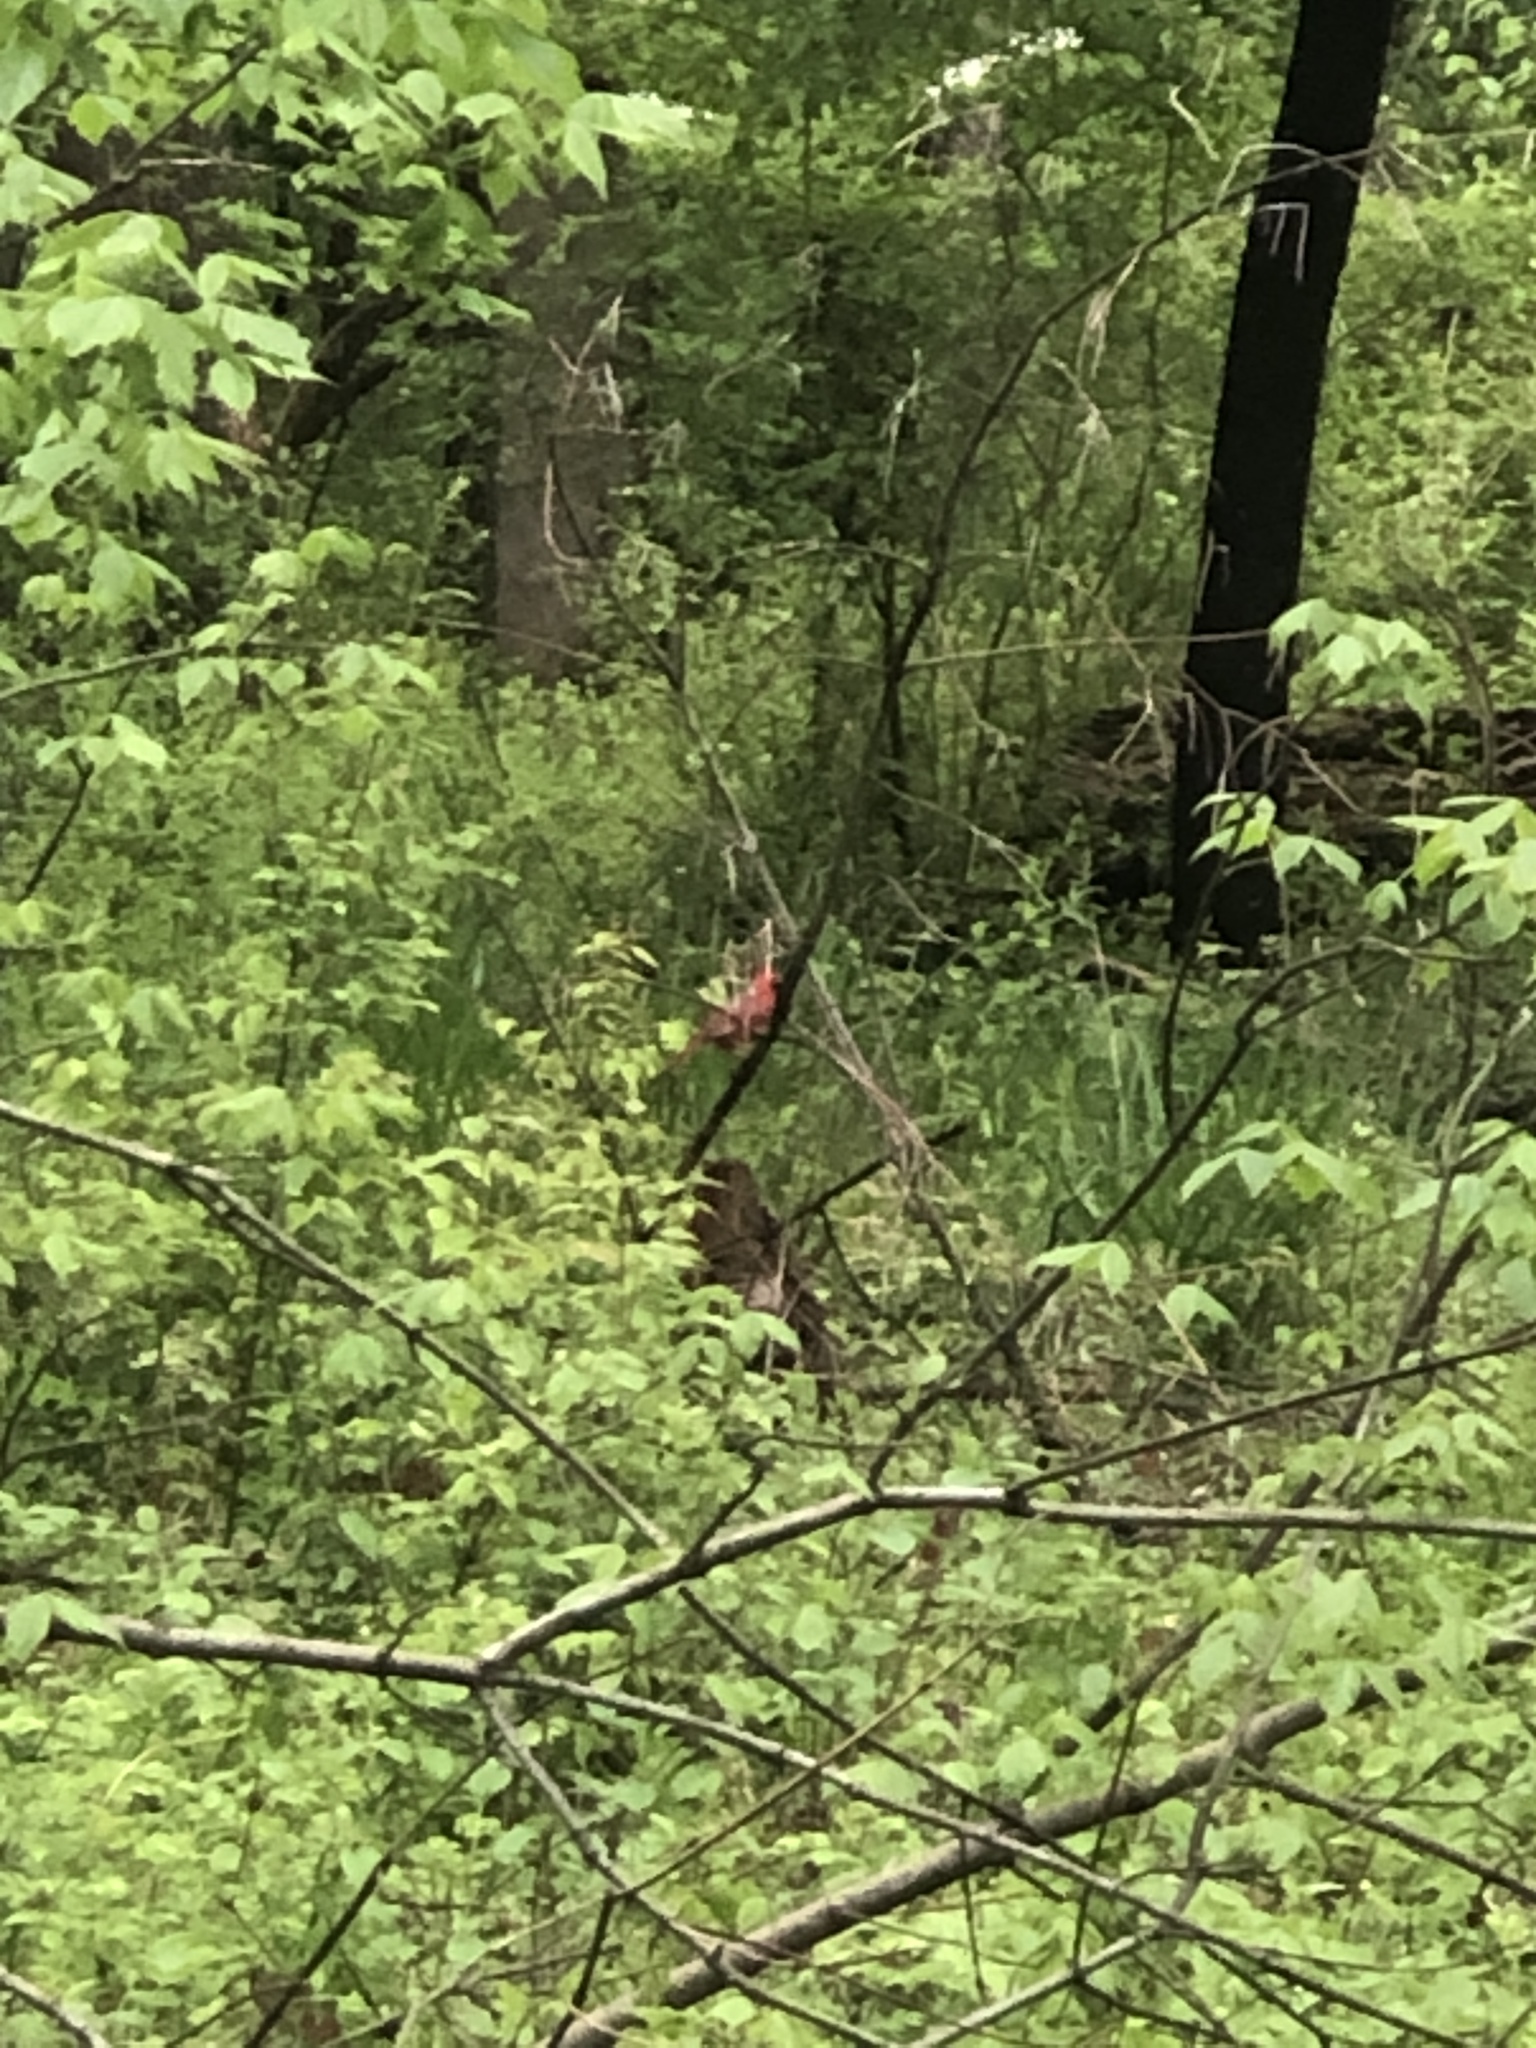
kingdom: Animalia
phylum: Chordata
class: Aves
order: Passeriformes
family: Cardinalidae
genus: Cardinalis
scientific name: Cardinalis cardinalis
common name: Northern cardinal
